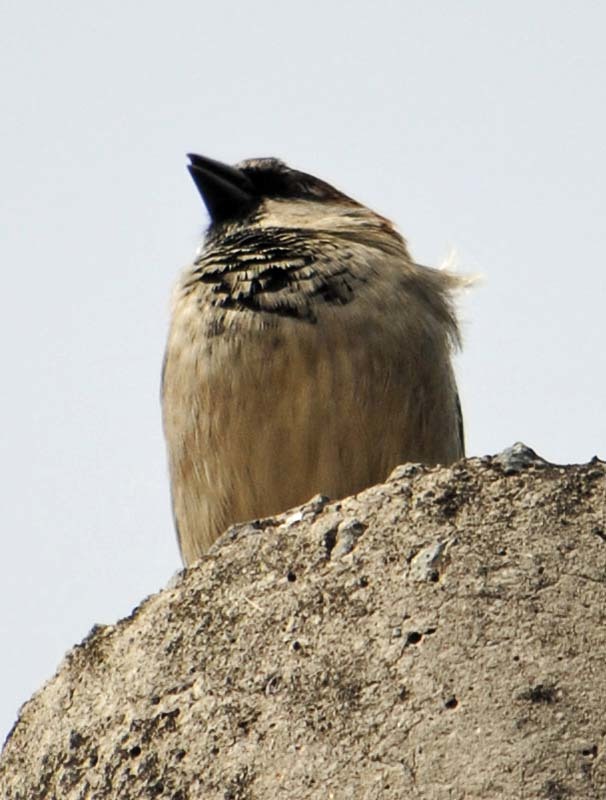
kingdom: Animalia
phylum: Chordata
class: Aves
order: Passeriformes
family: Passeridae
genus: Passer
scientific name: Passer domesticus
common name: House sparrow
